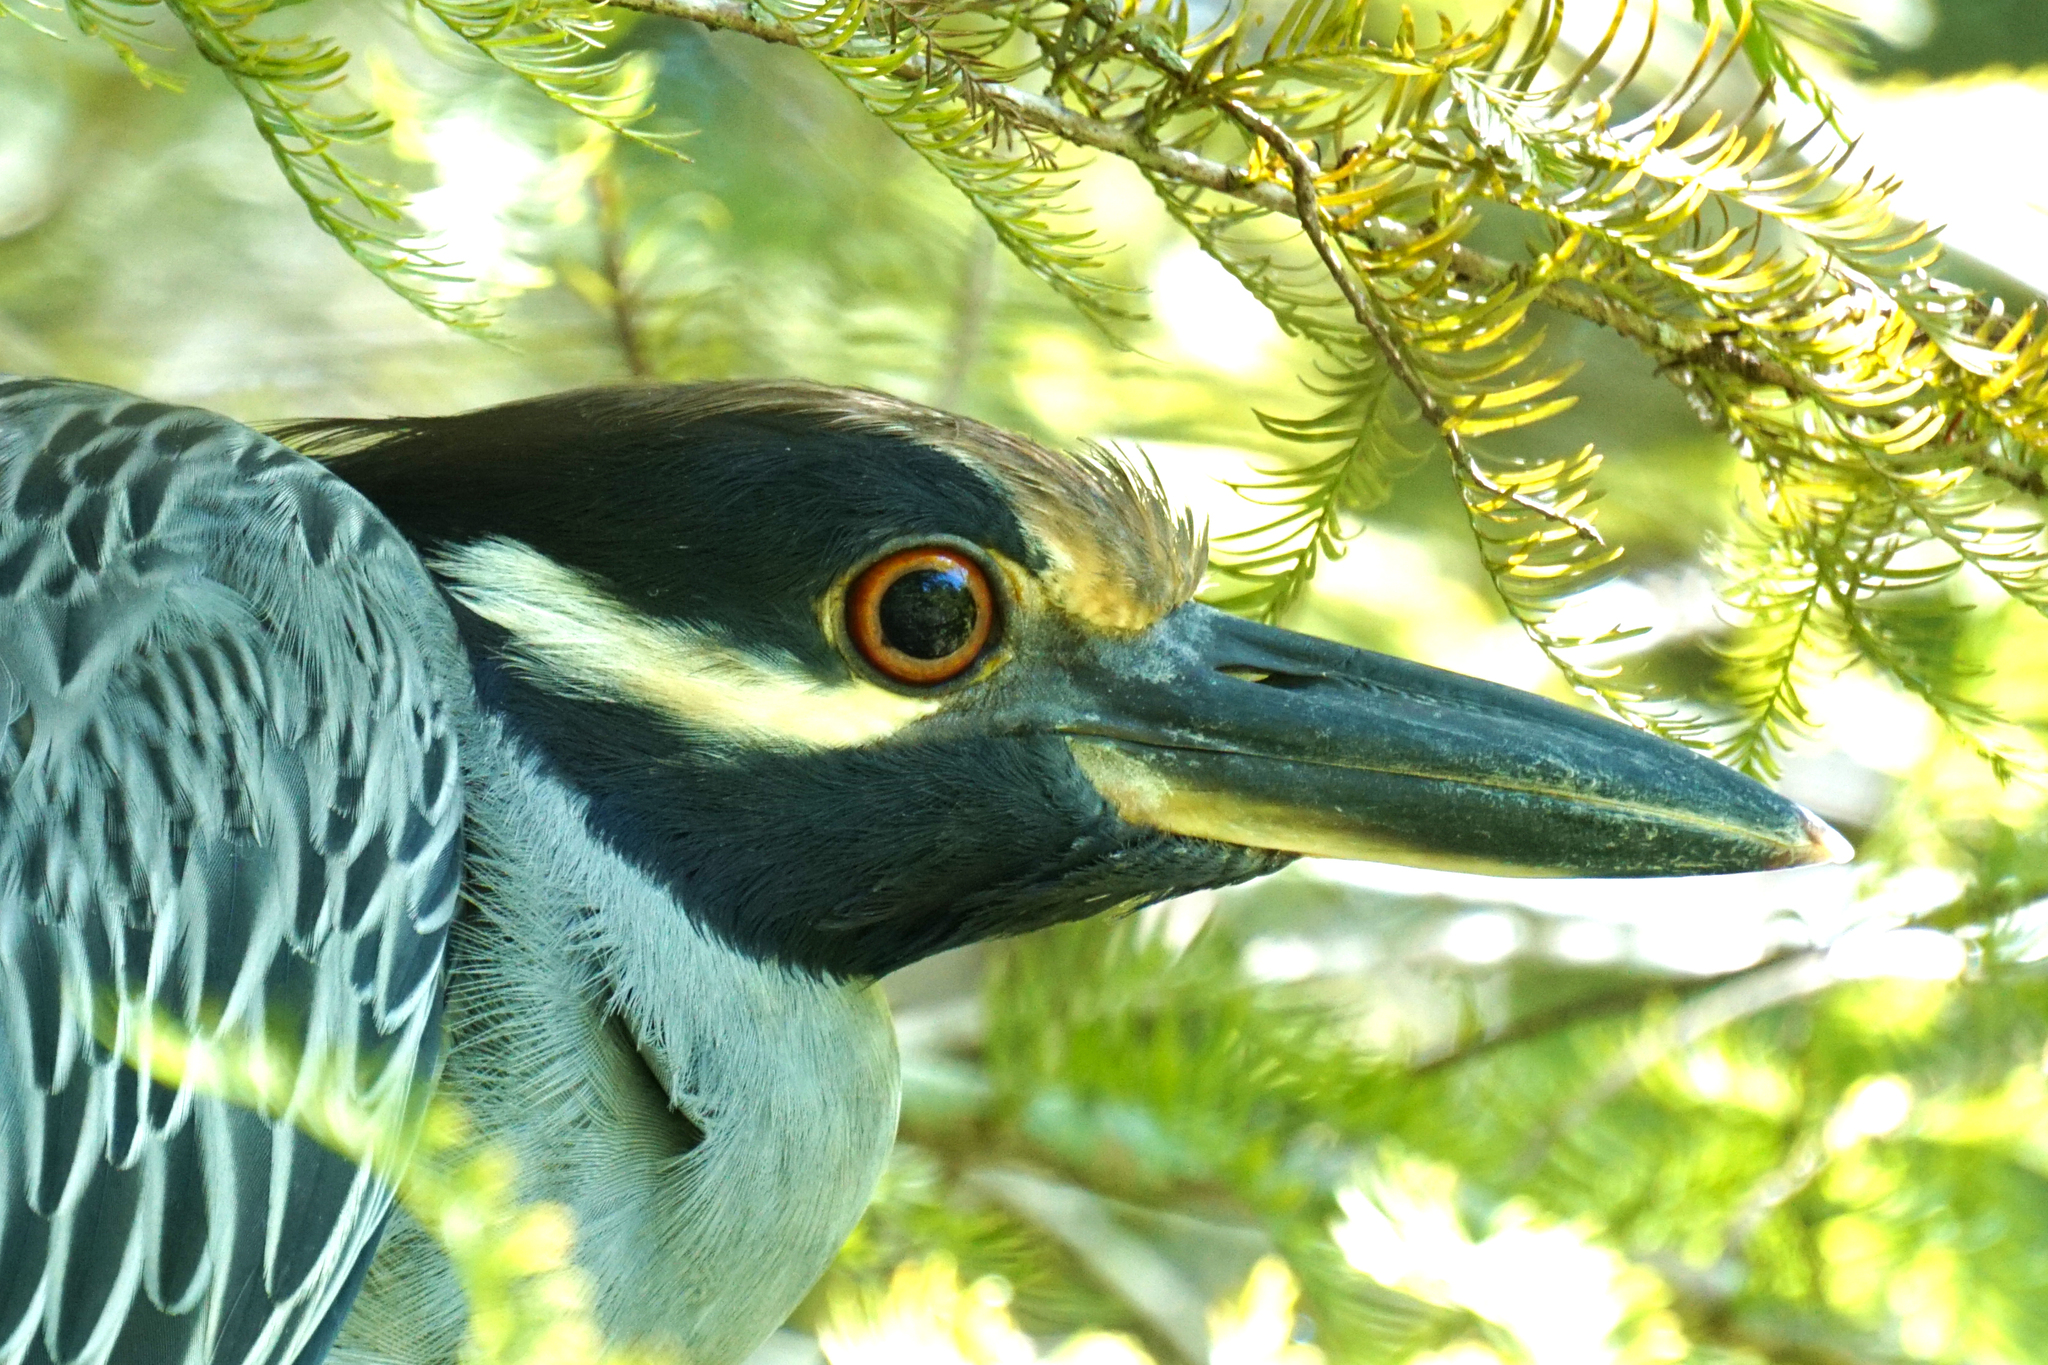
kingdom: Animalia
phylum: Chordata
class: Aves
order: Pelecaniformes
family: Ardeidae
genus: Nyctanassa
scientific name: Nyctanassa violacea
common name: Yellow-crowned night heron
